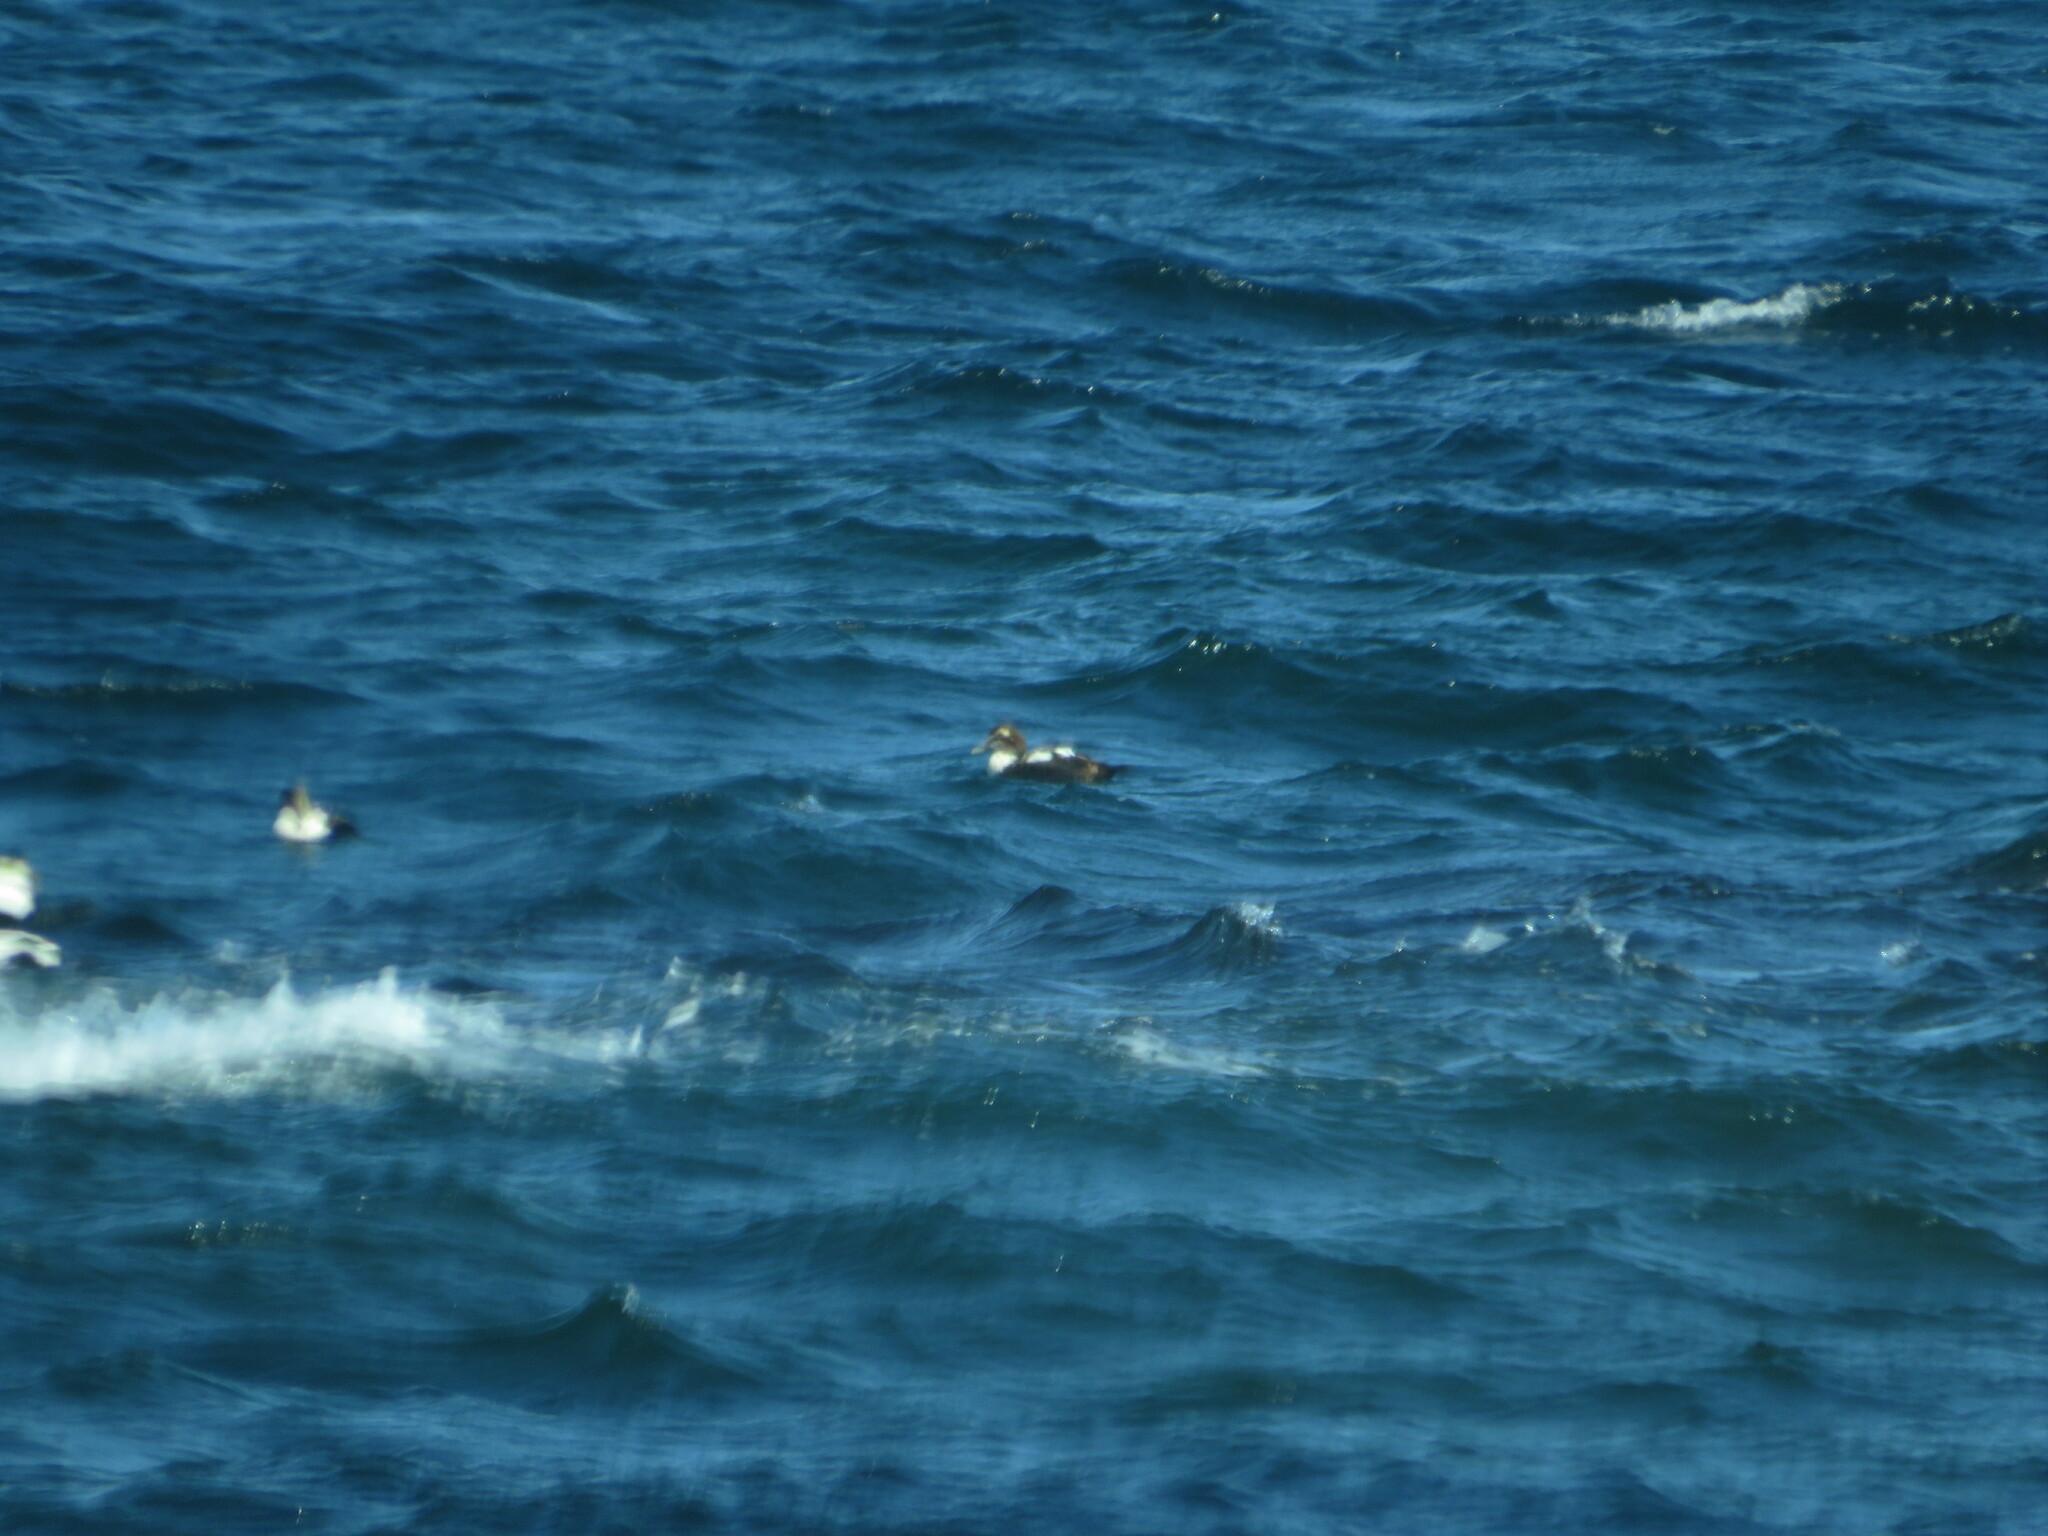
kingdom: Animalia
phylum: Chordata
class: Aves
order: Anseriformes
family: Anatidae
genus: Somateria
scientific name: Somateria mollissima
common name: Common eider
